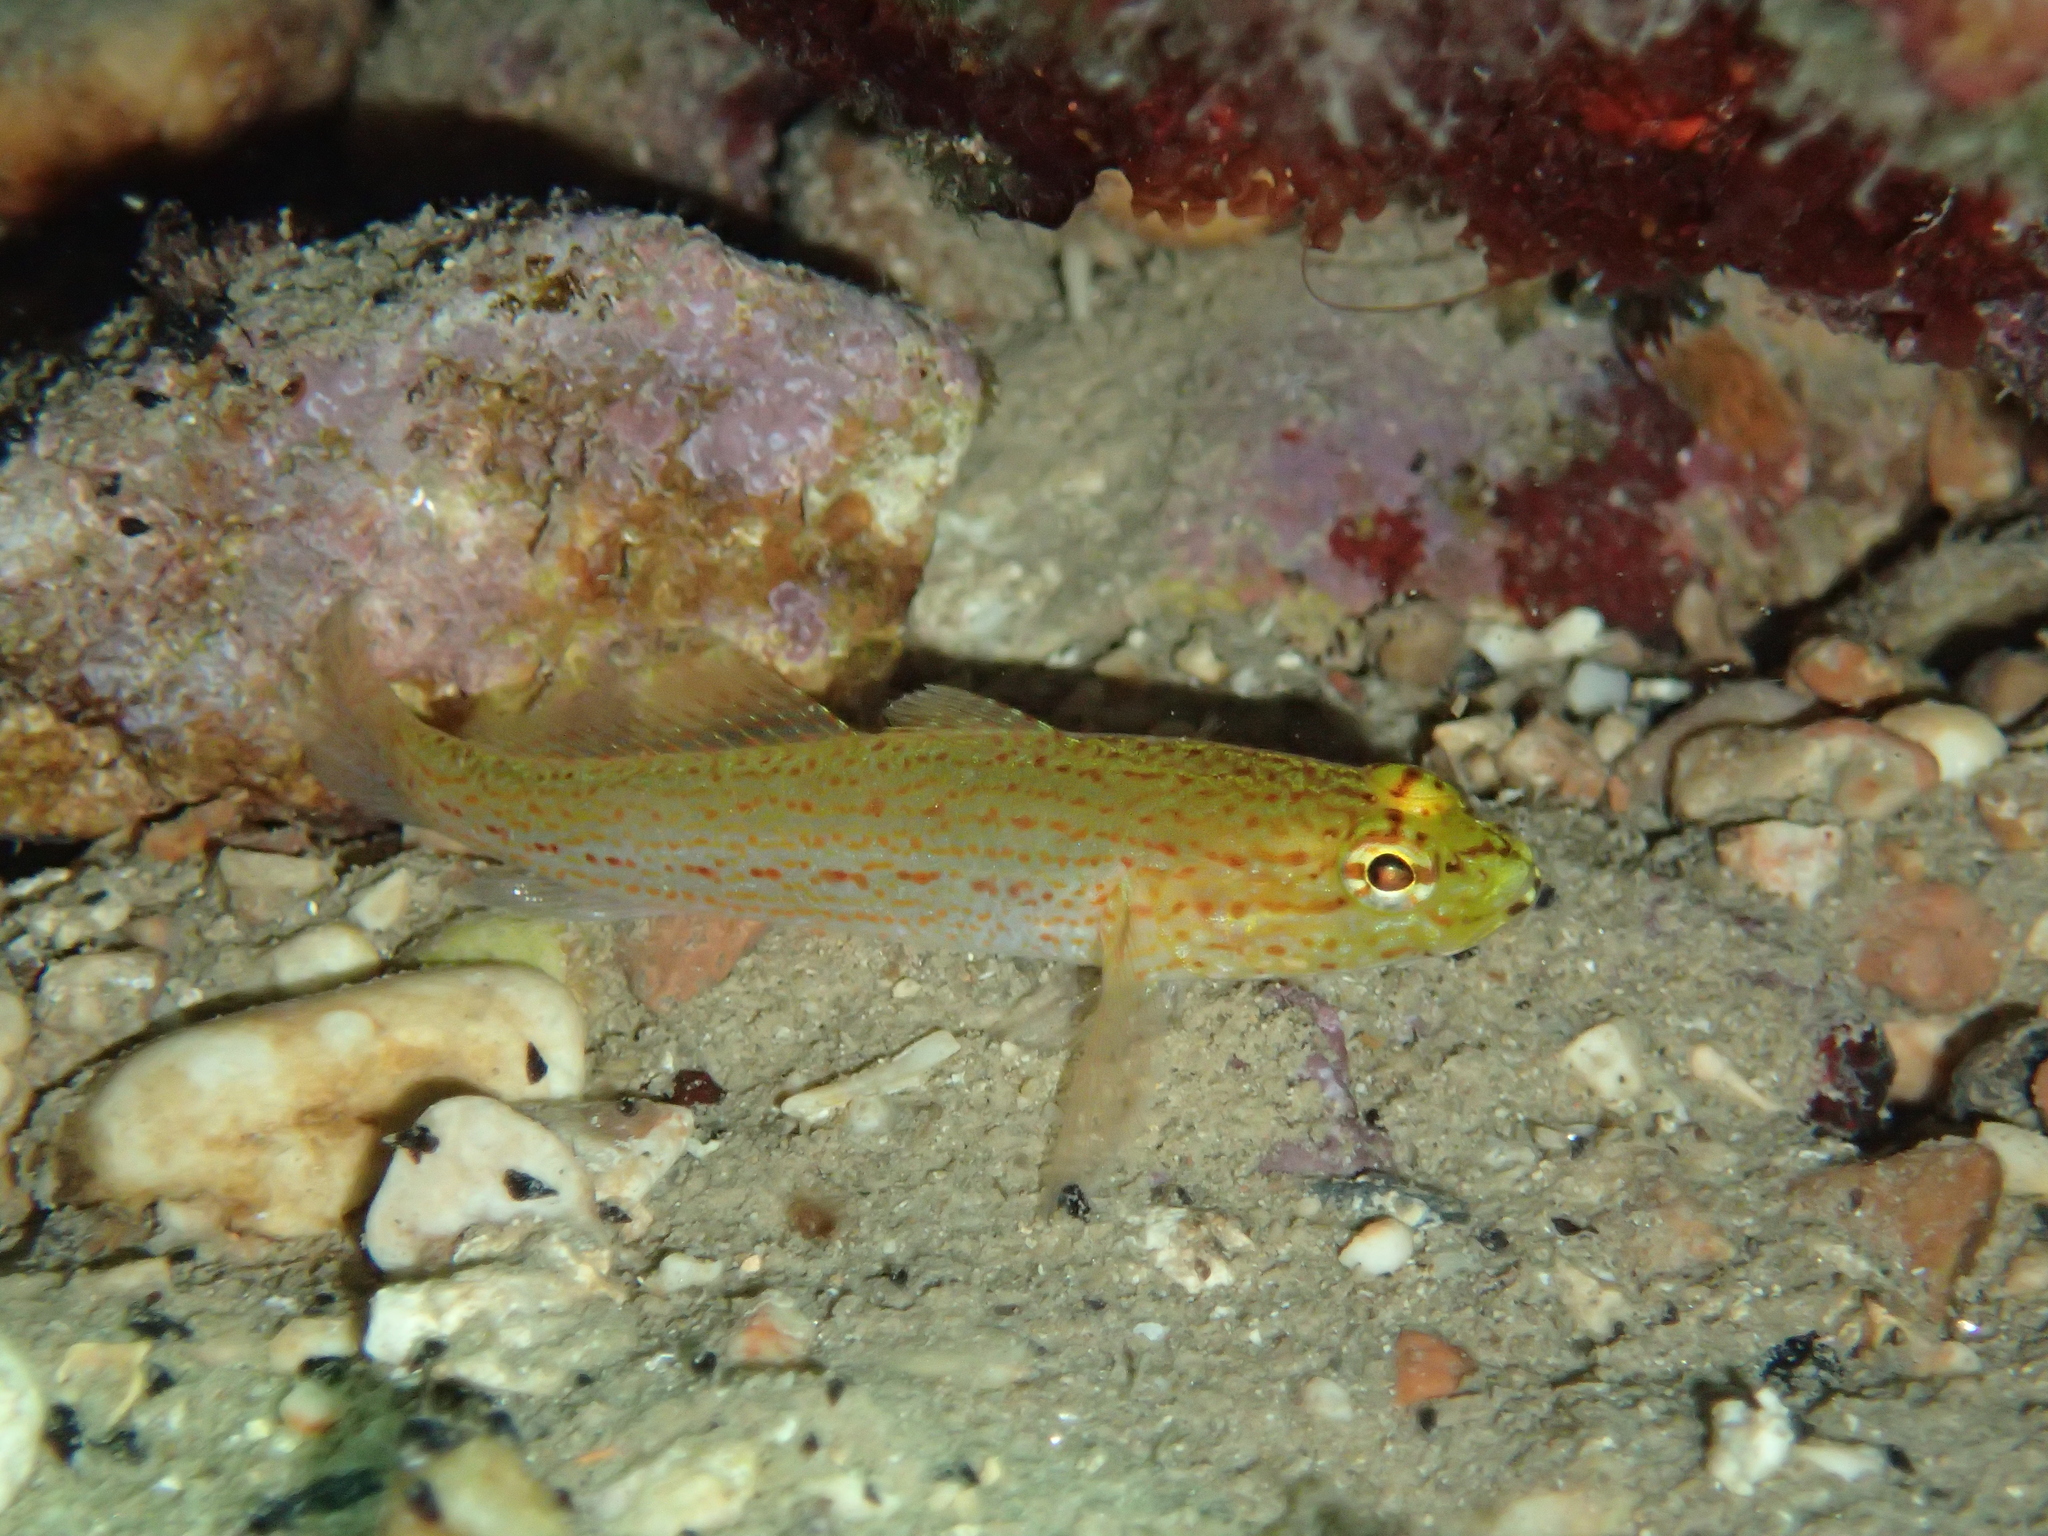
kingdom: Animalia
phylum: Chordata
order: Perciformes
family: Gobiidae
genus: Gobius
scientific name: Gobius auratus
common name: Golden goby
